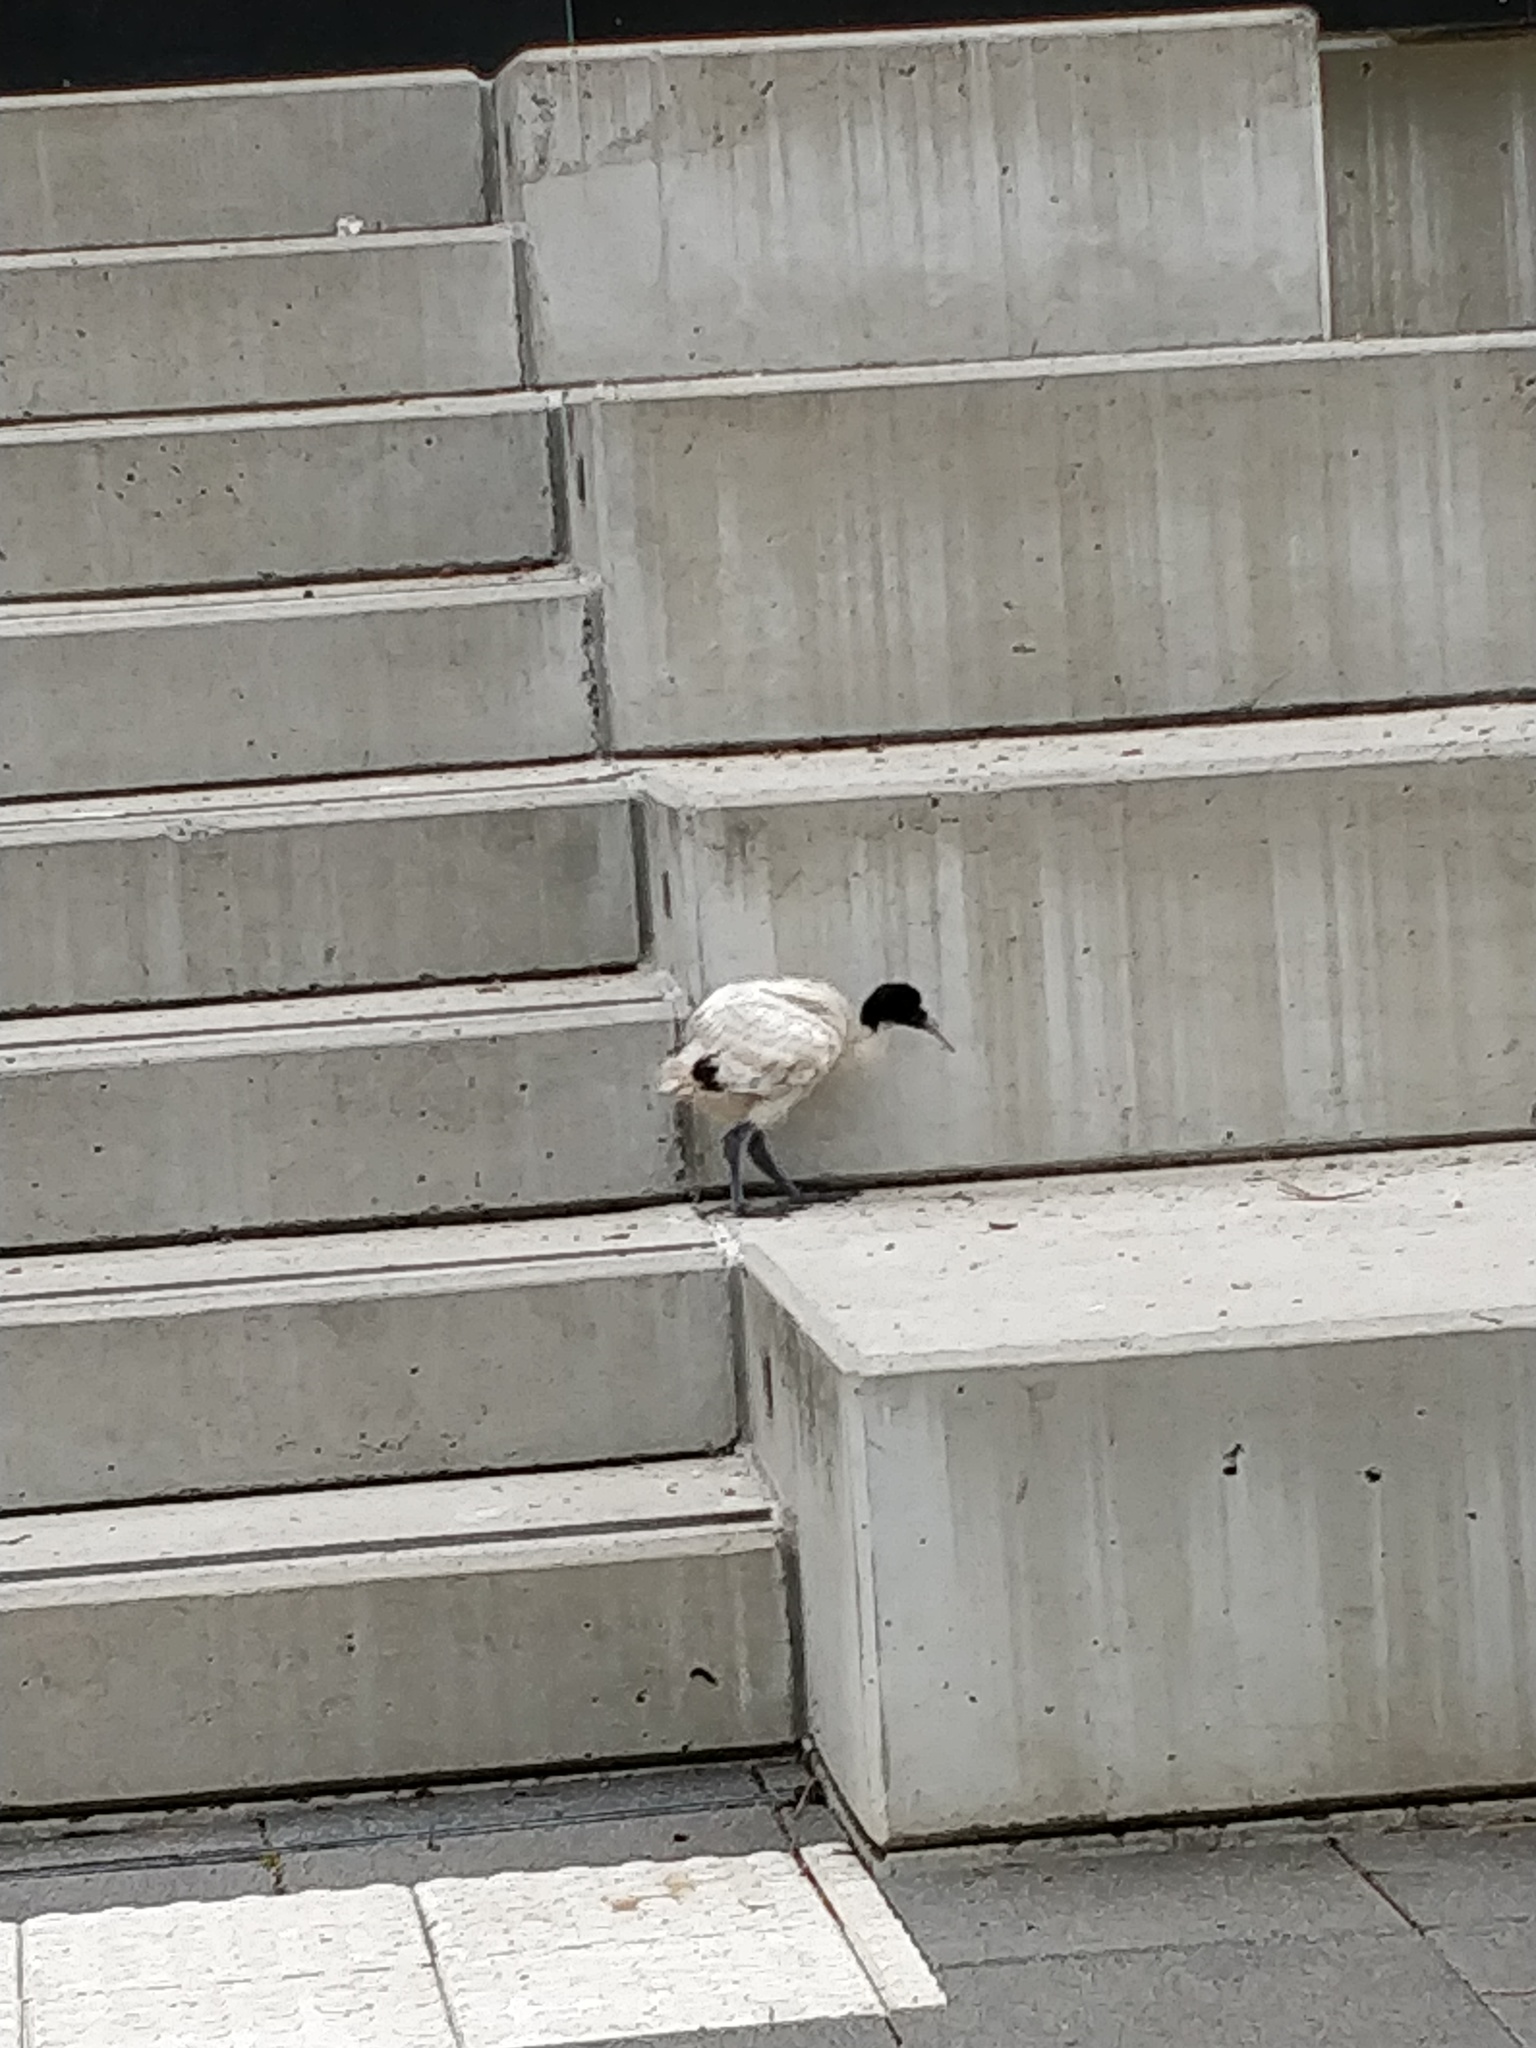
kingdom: Animalia
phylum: Chordata
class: Aves
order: Pelecaniformes
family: Threskiornithidae
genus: Threskiornis
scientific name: Threskiornis molucca
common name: Australian white ibis
